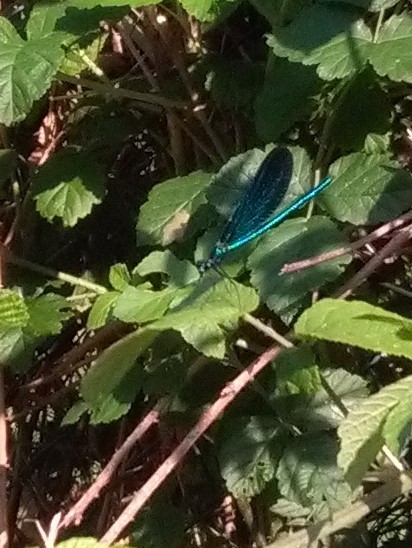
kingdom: Animalia
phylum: Arthropoda
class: Insecta
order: Odonata
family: Calopterygidae
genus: Calopteryx
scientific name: Calopteryx virgo
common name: Beautiful demoiselle
